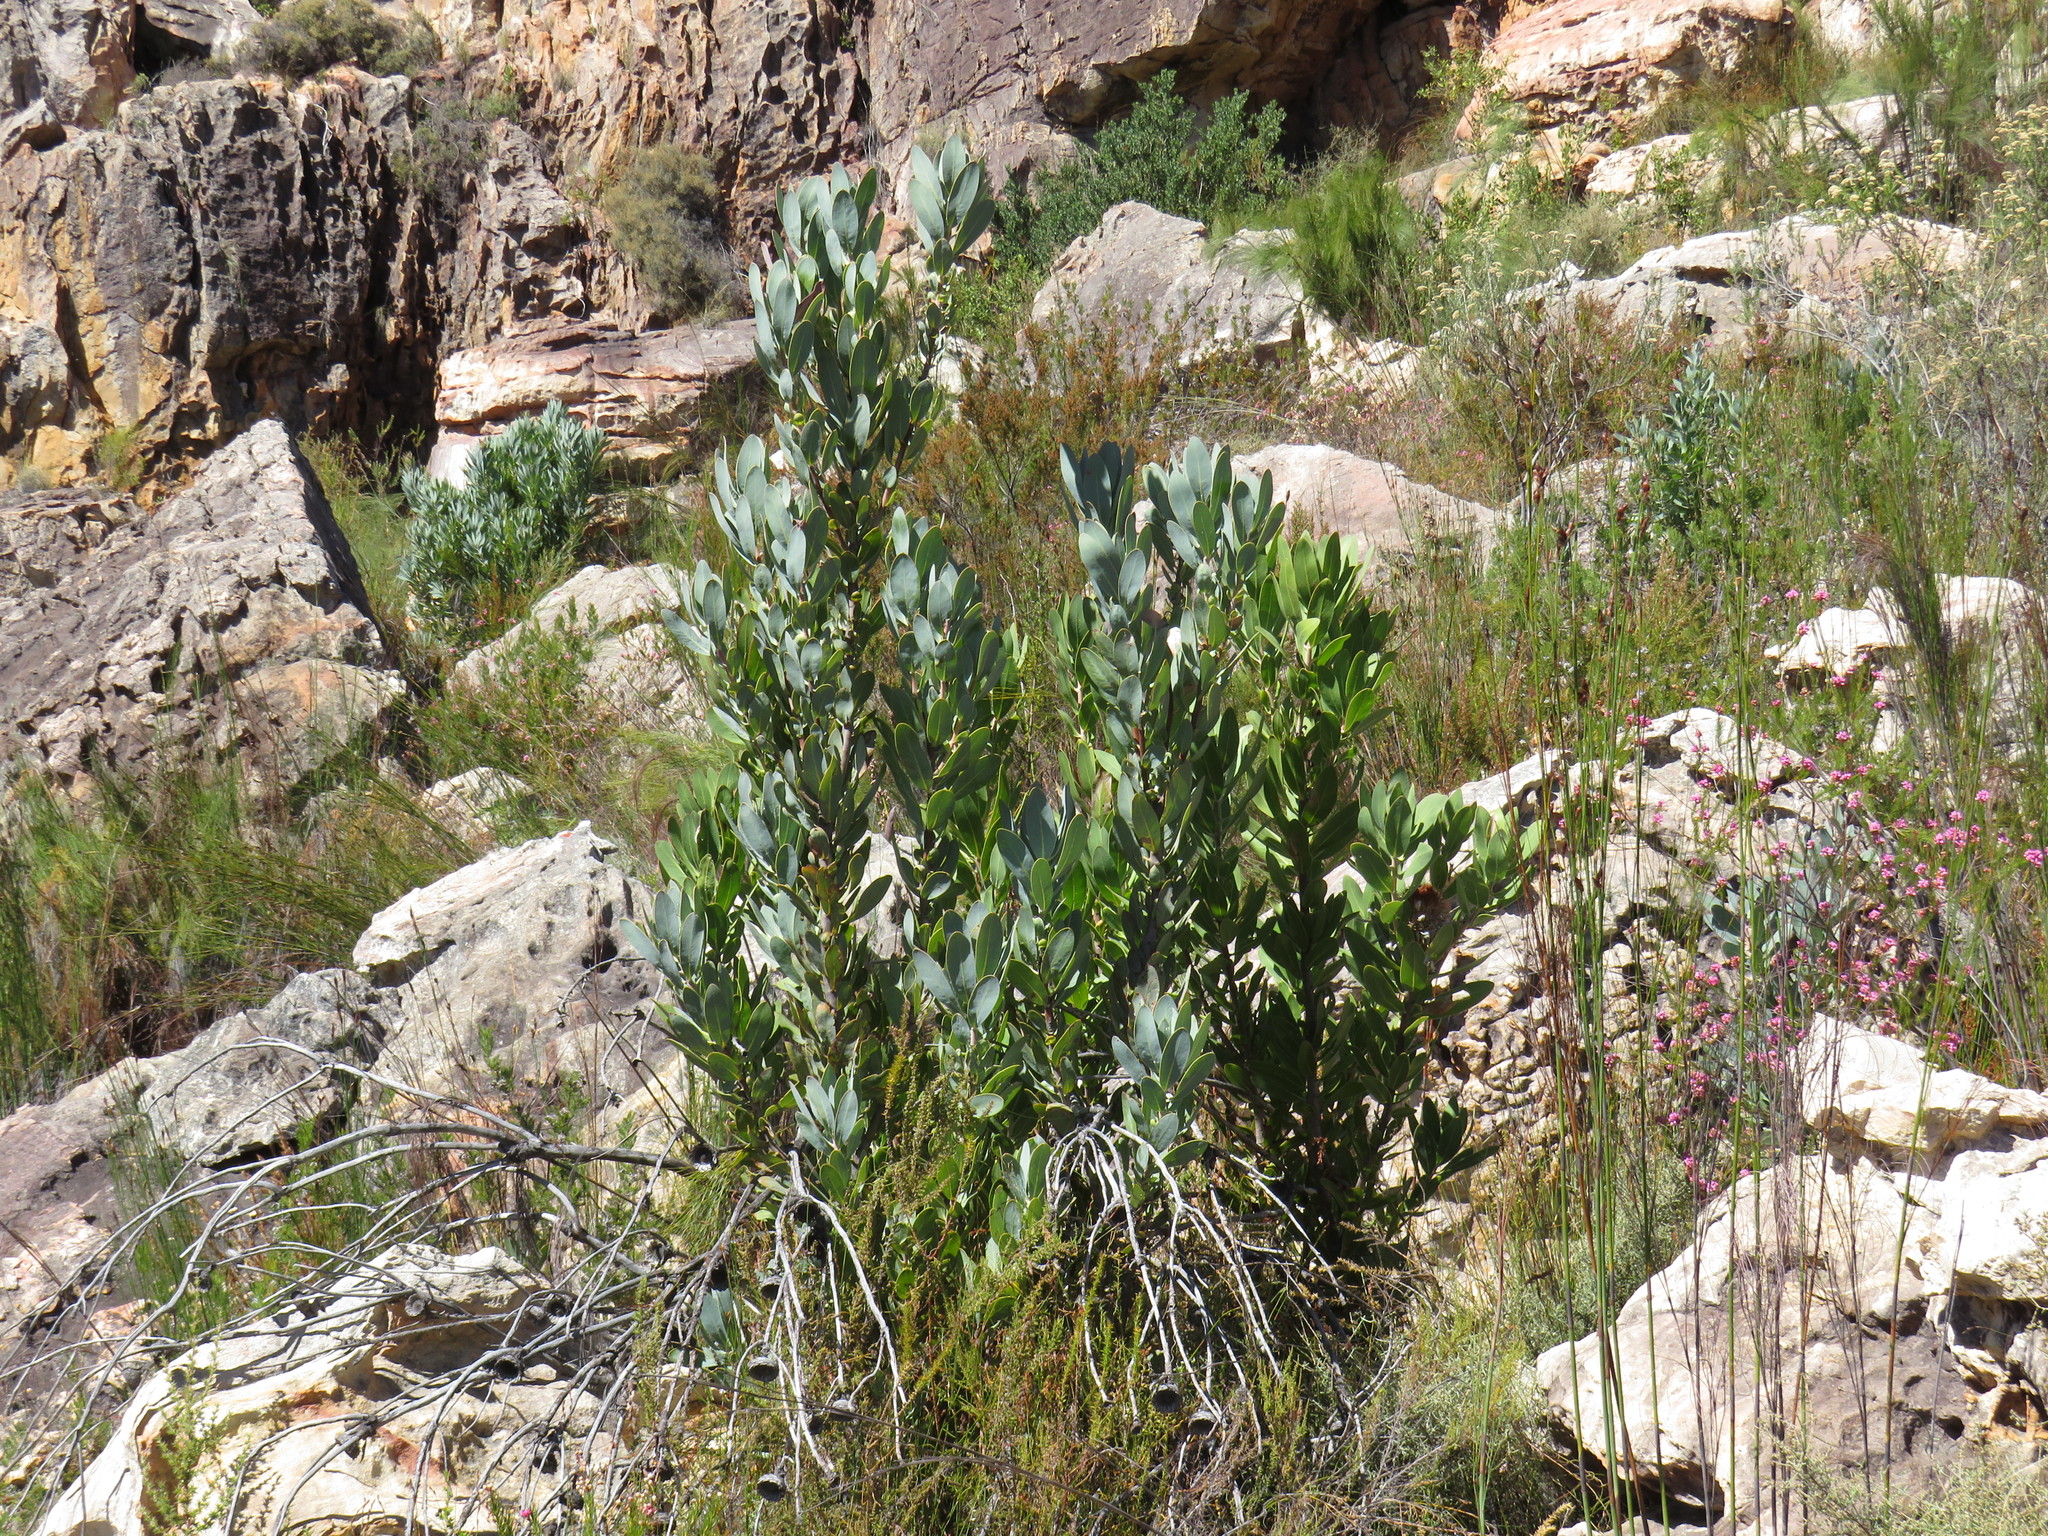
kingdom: Plantae
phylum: Tracheophyta
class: Magnoliopsida
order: Proteales
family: Proteaceae
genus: Protea
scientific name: Protea laurifolia
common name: Grey-leaf sugarbsh
